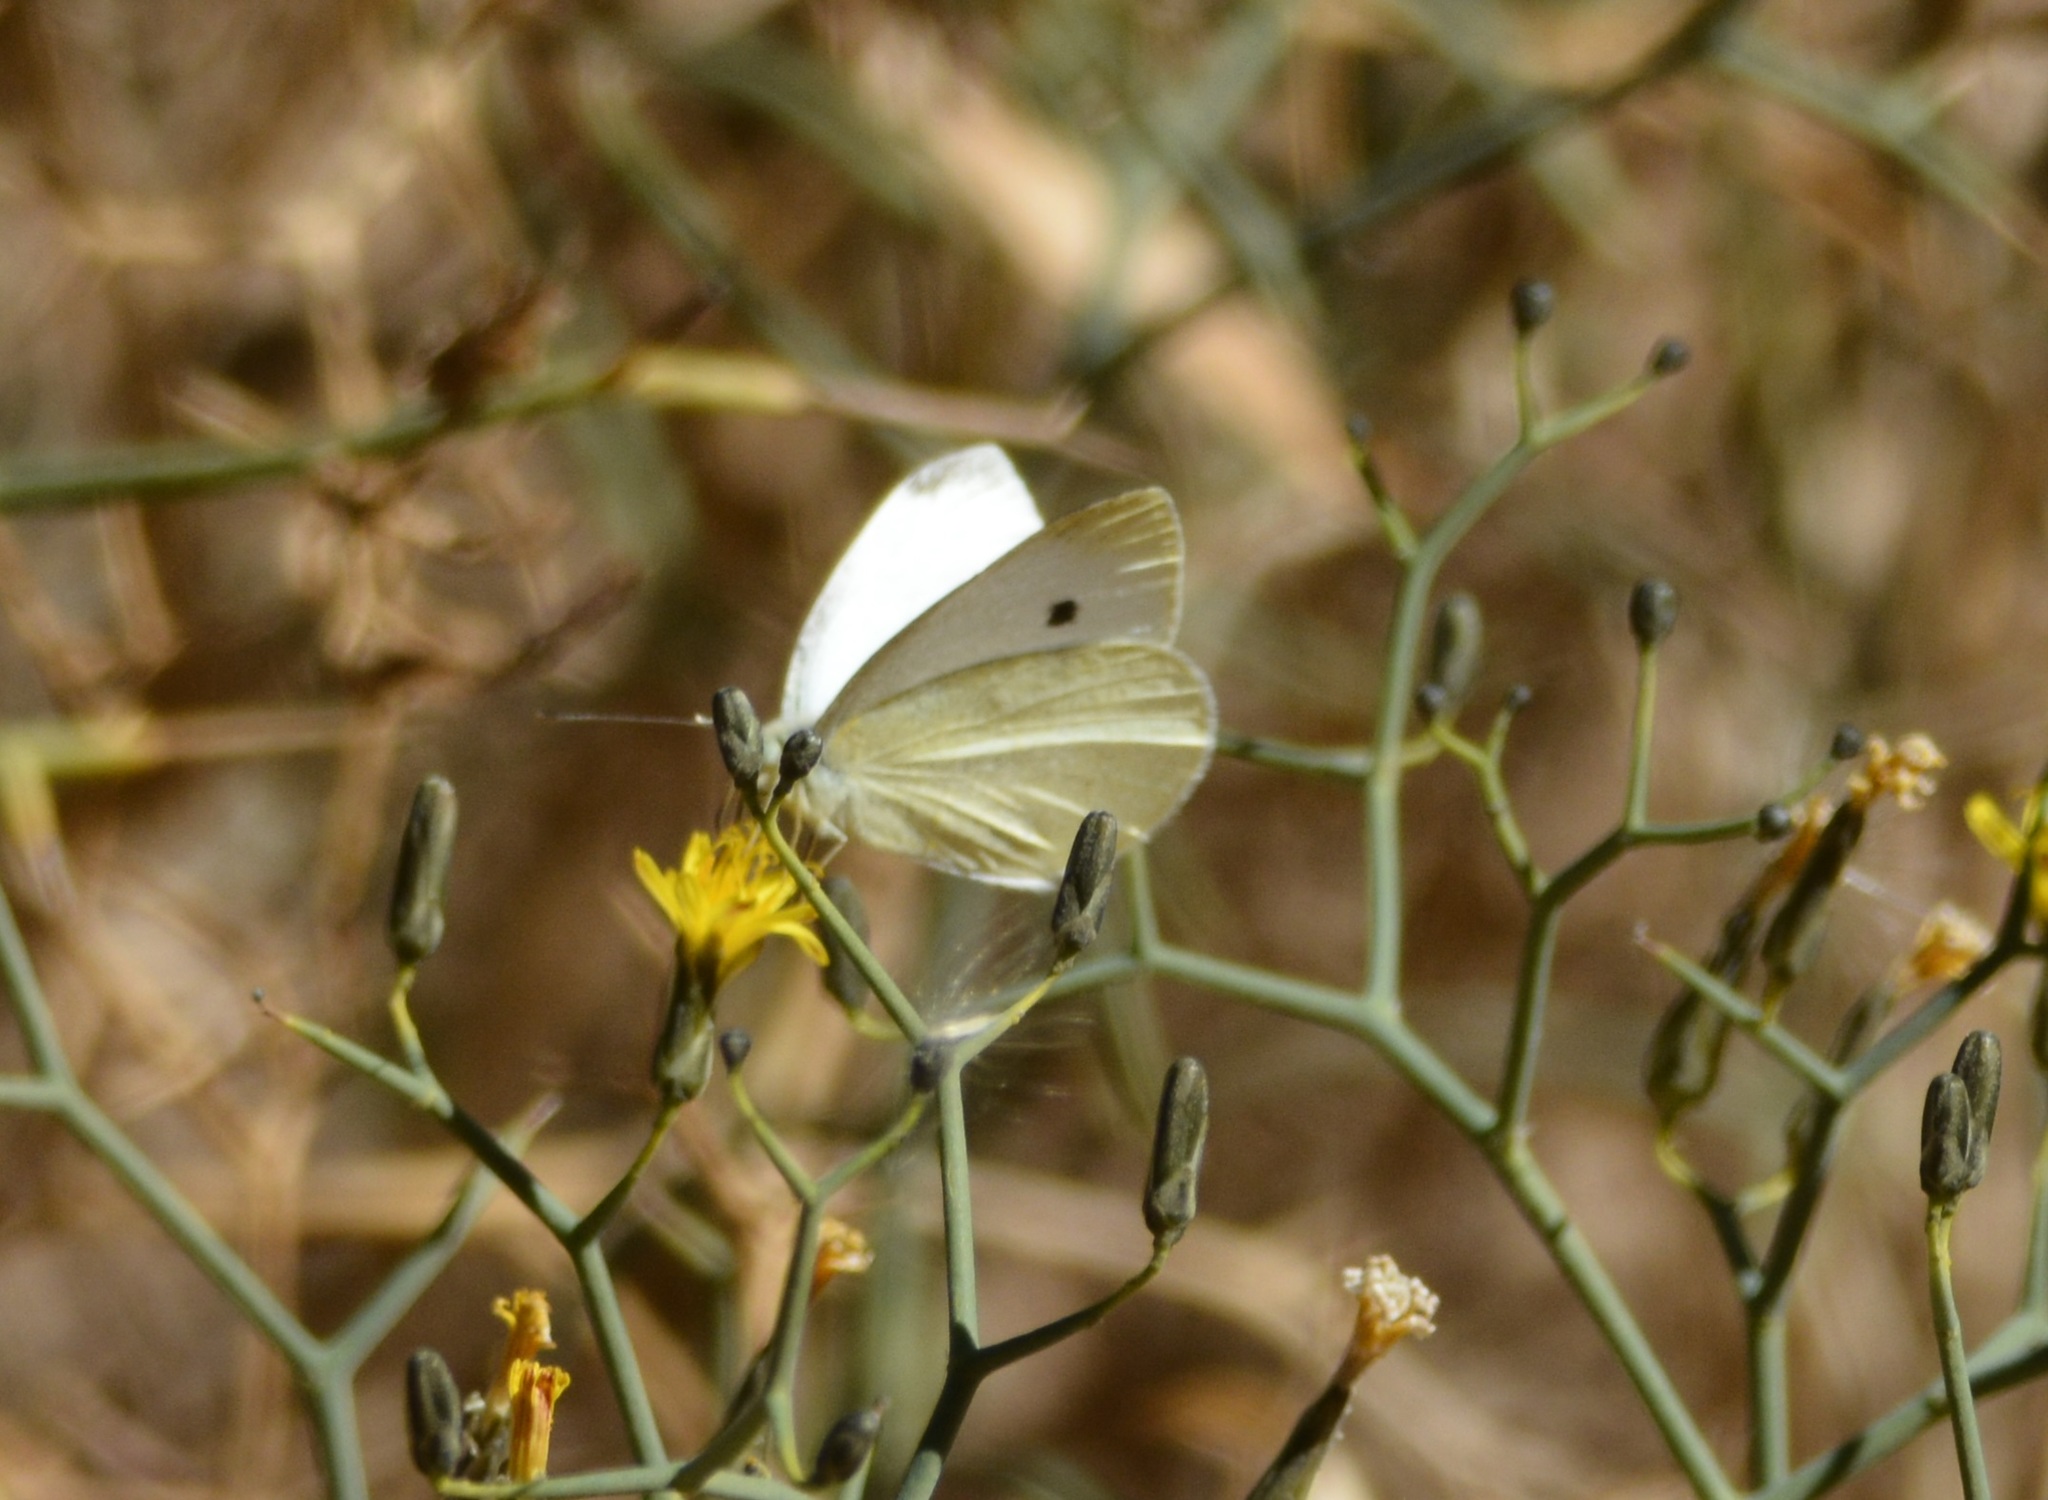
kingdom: Animalia
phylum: Arthropoda
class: Insecta
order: Lepidoptera
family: Pieridae
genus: Pieris
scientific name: Pieris rapae
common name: Small white
